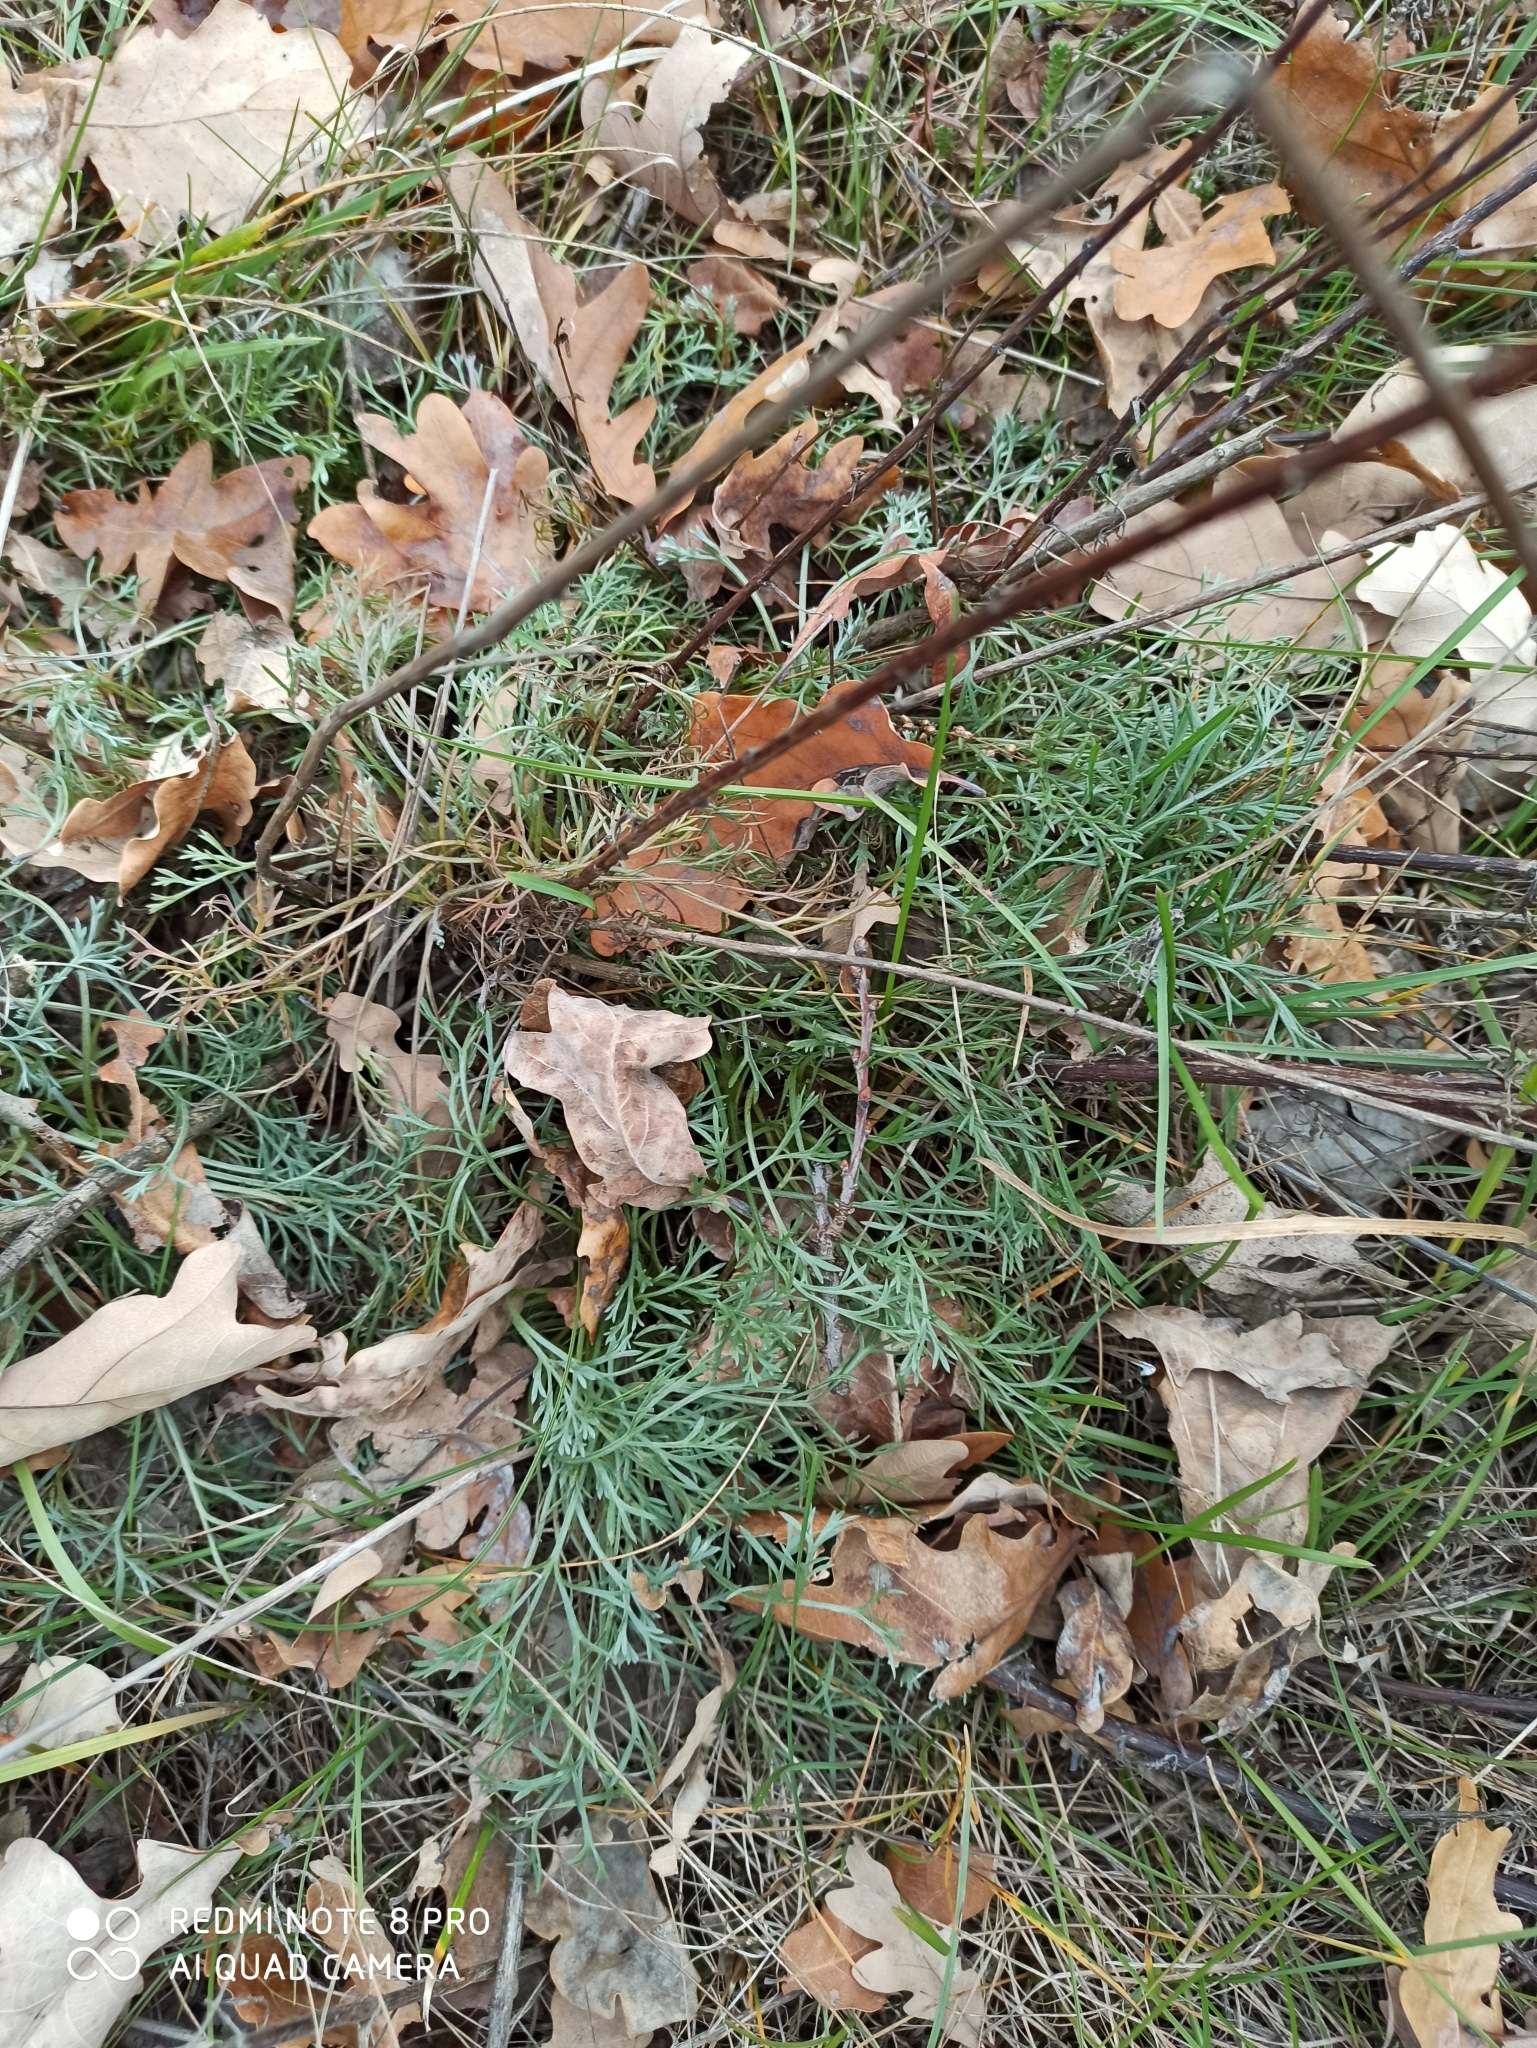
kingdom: Plantae
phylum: Tracheophyta
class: Magnoliopsida
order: Asterales
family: Asteraceae
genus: Artemisia
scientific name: Artemisia campestris
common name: Field wormwood
